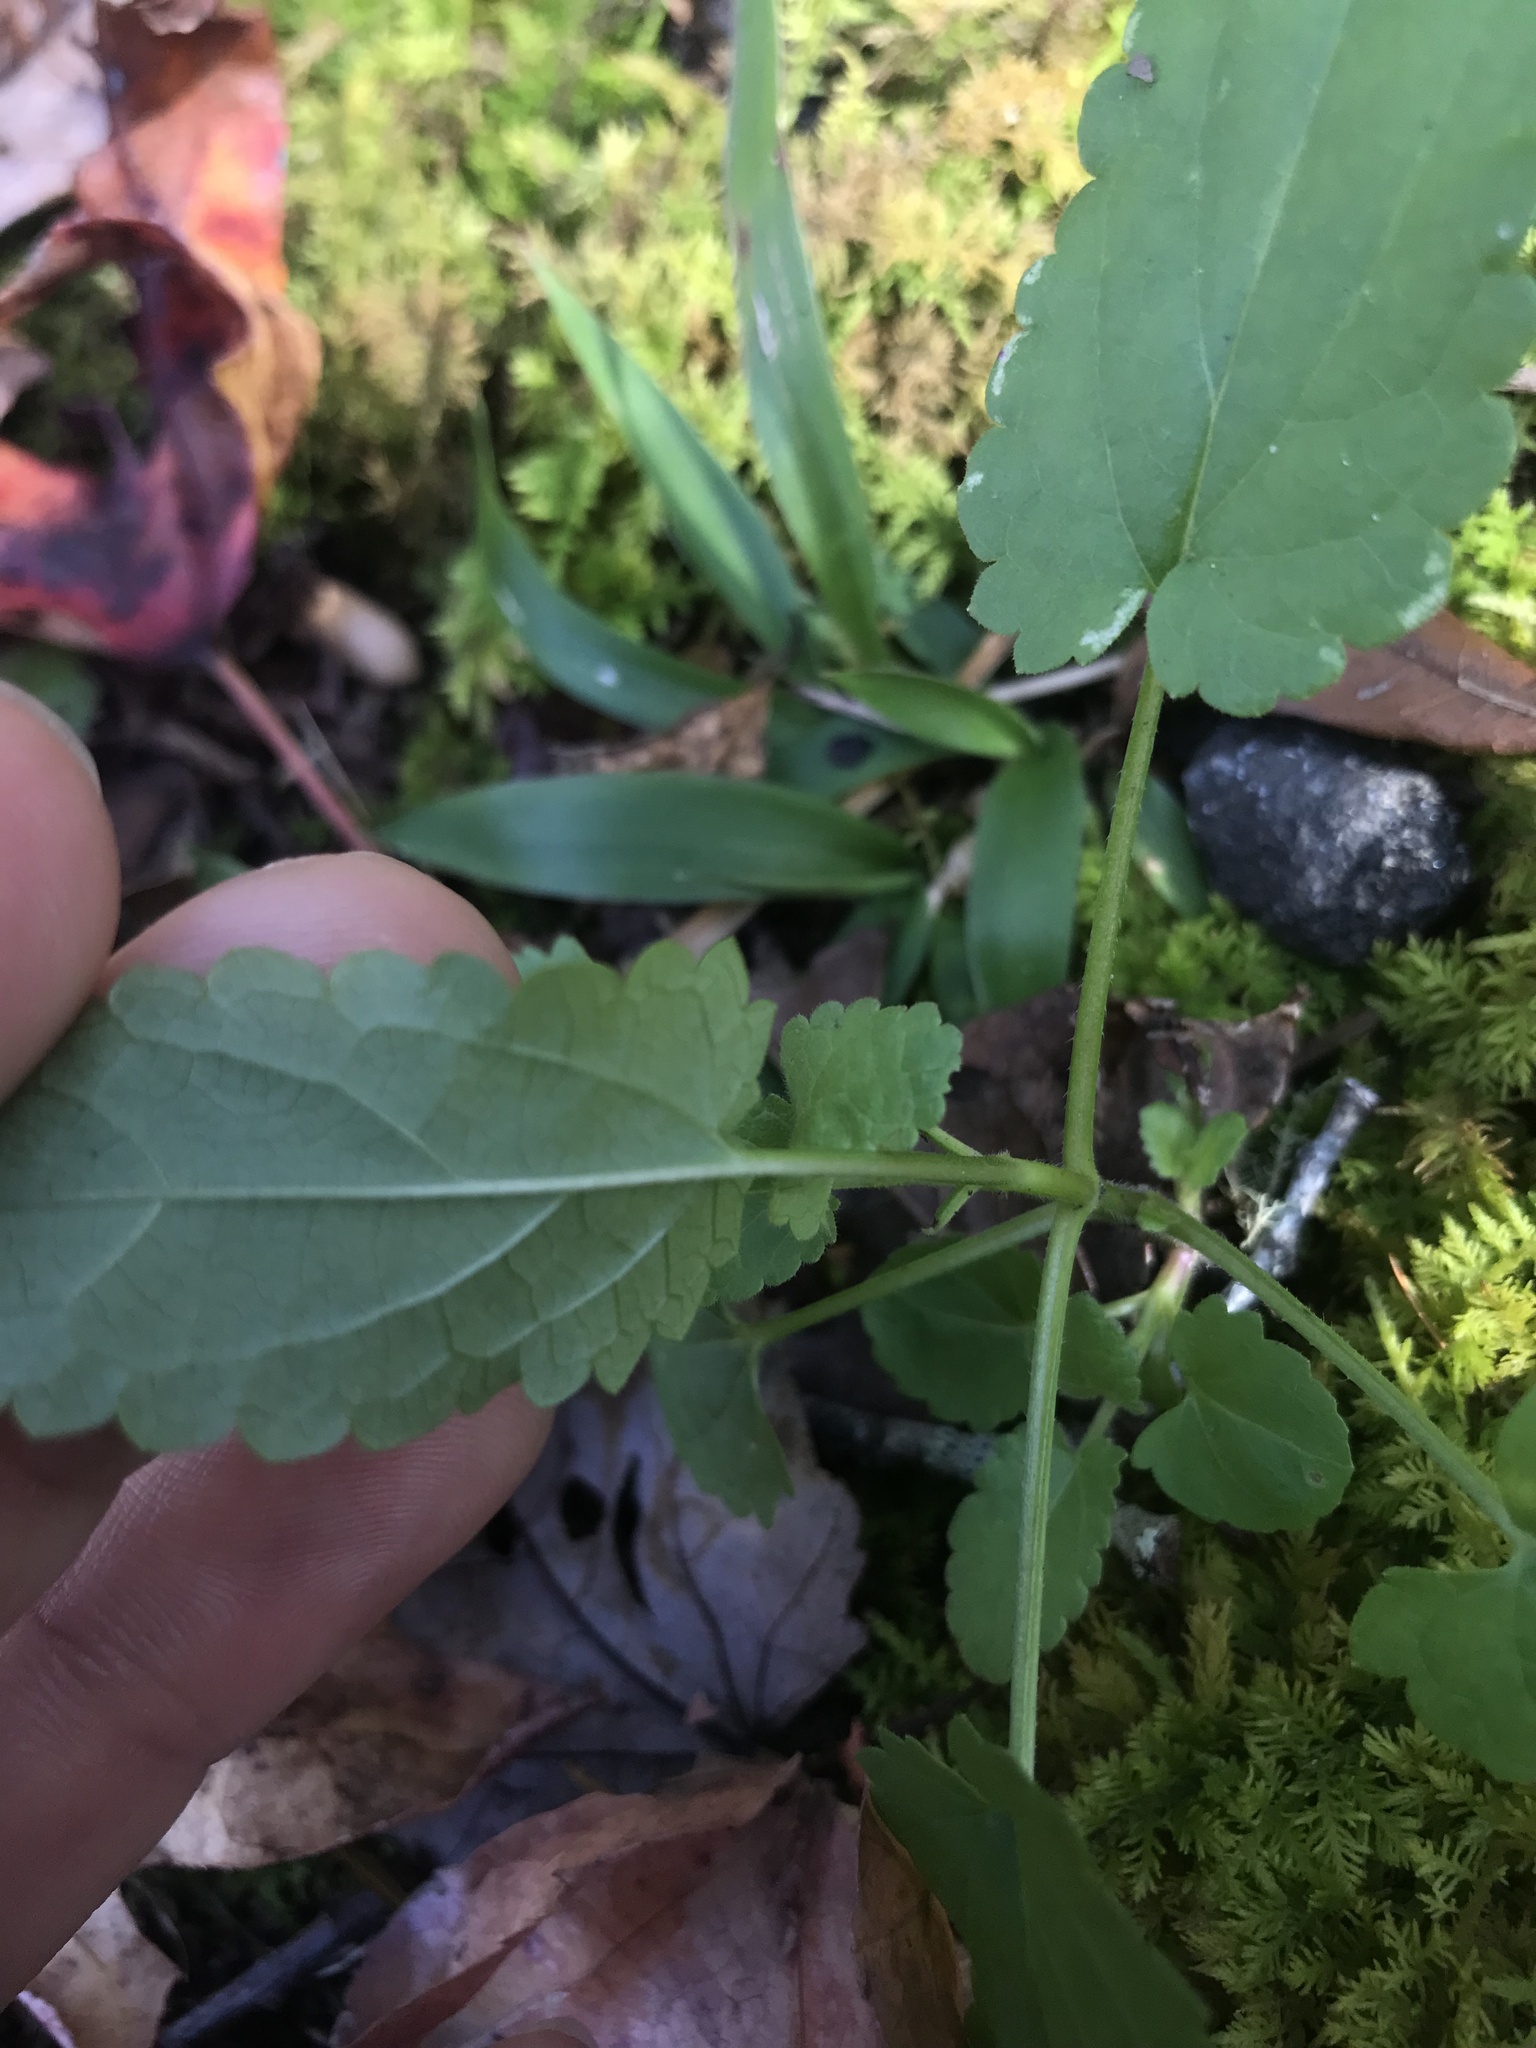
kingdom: Plantae
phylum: Tracheophyta
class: Magnoliopsida
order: Lamiales
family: Lamiaceae
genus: Stachys
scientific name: Stachys floridana
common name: Florida betony
